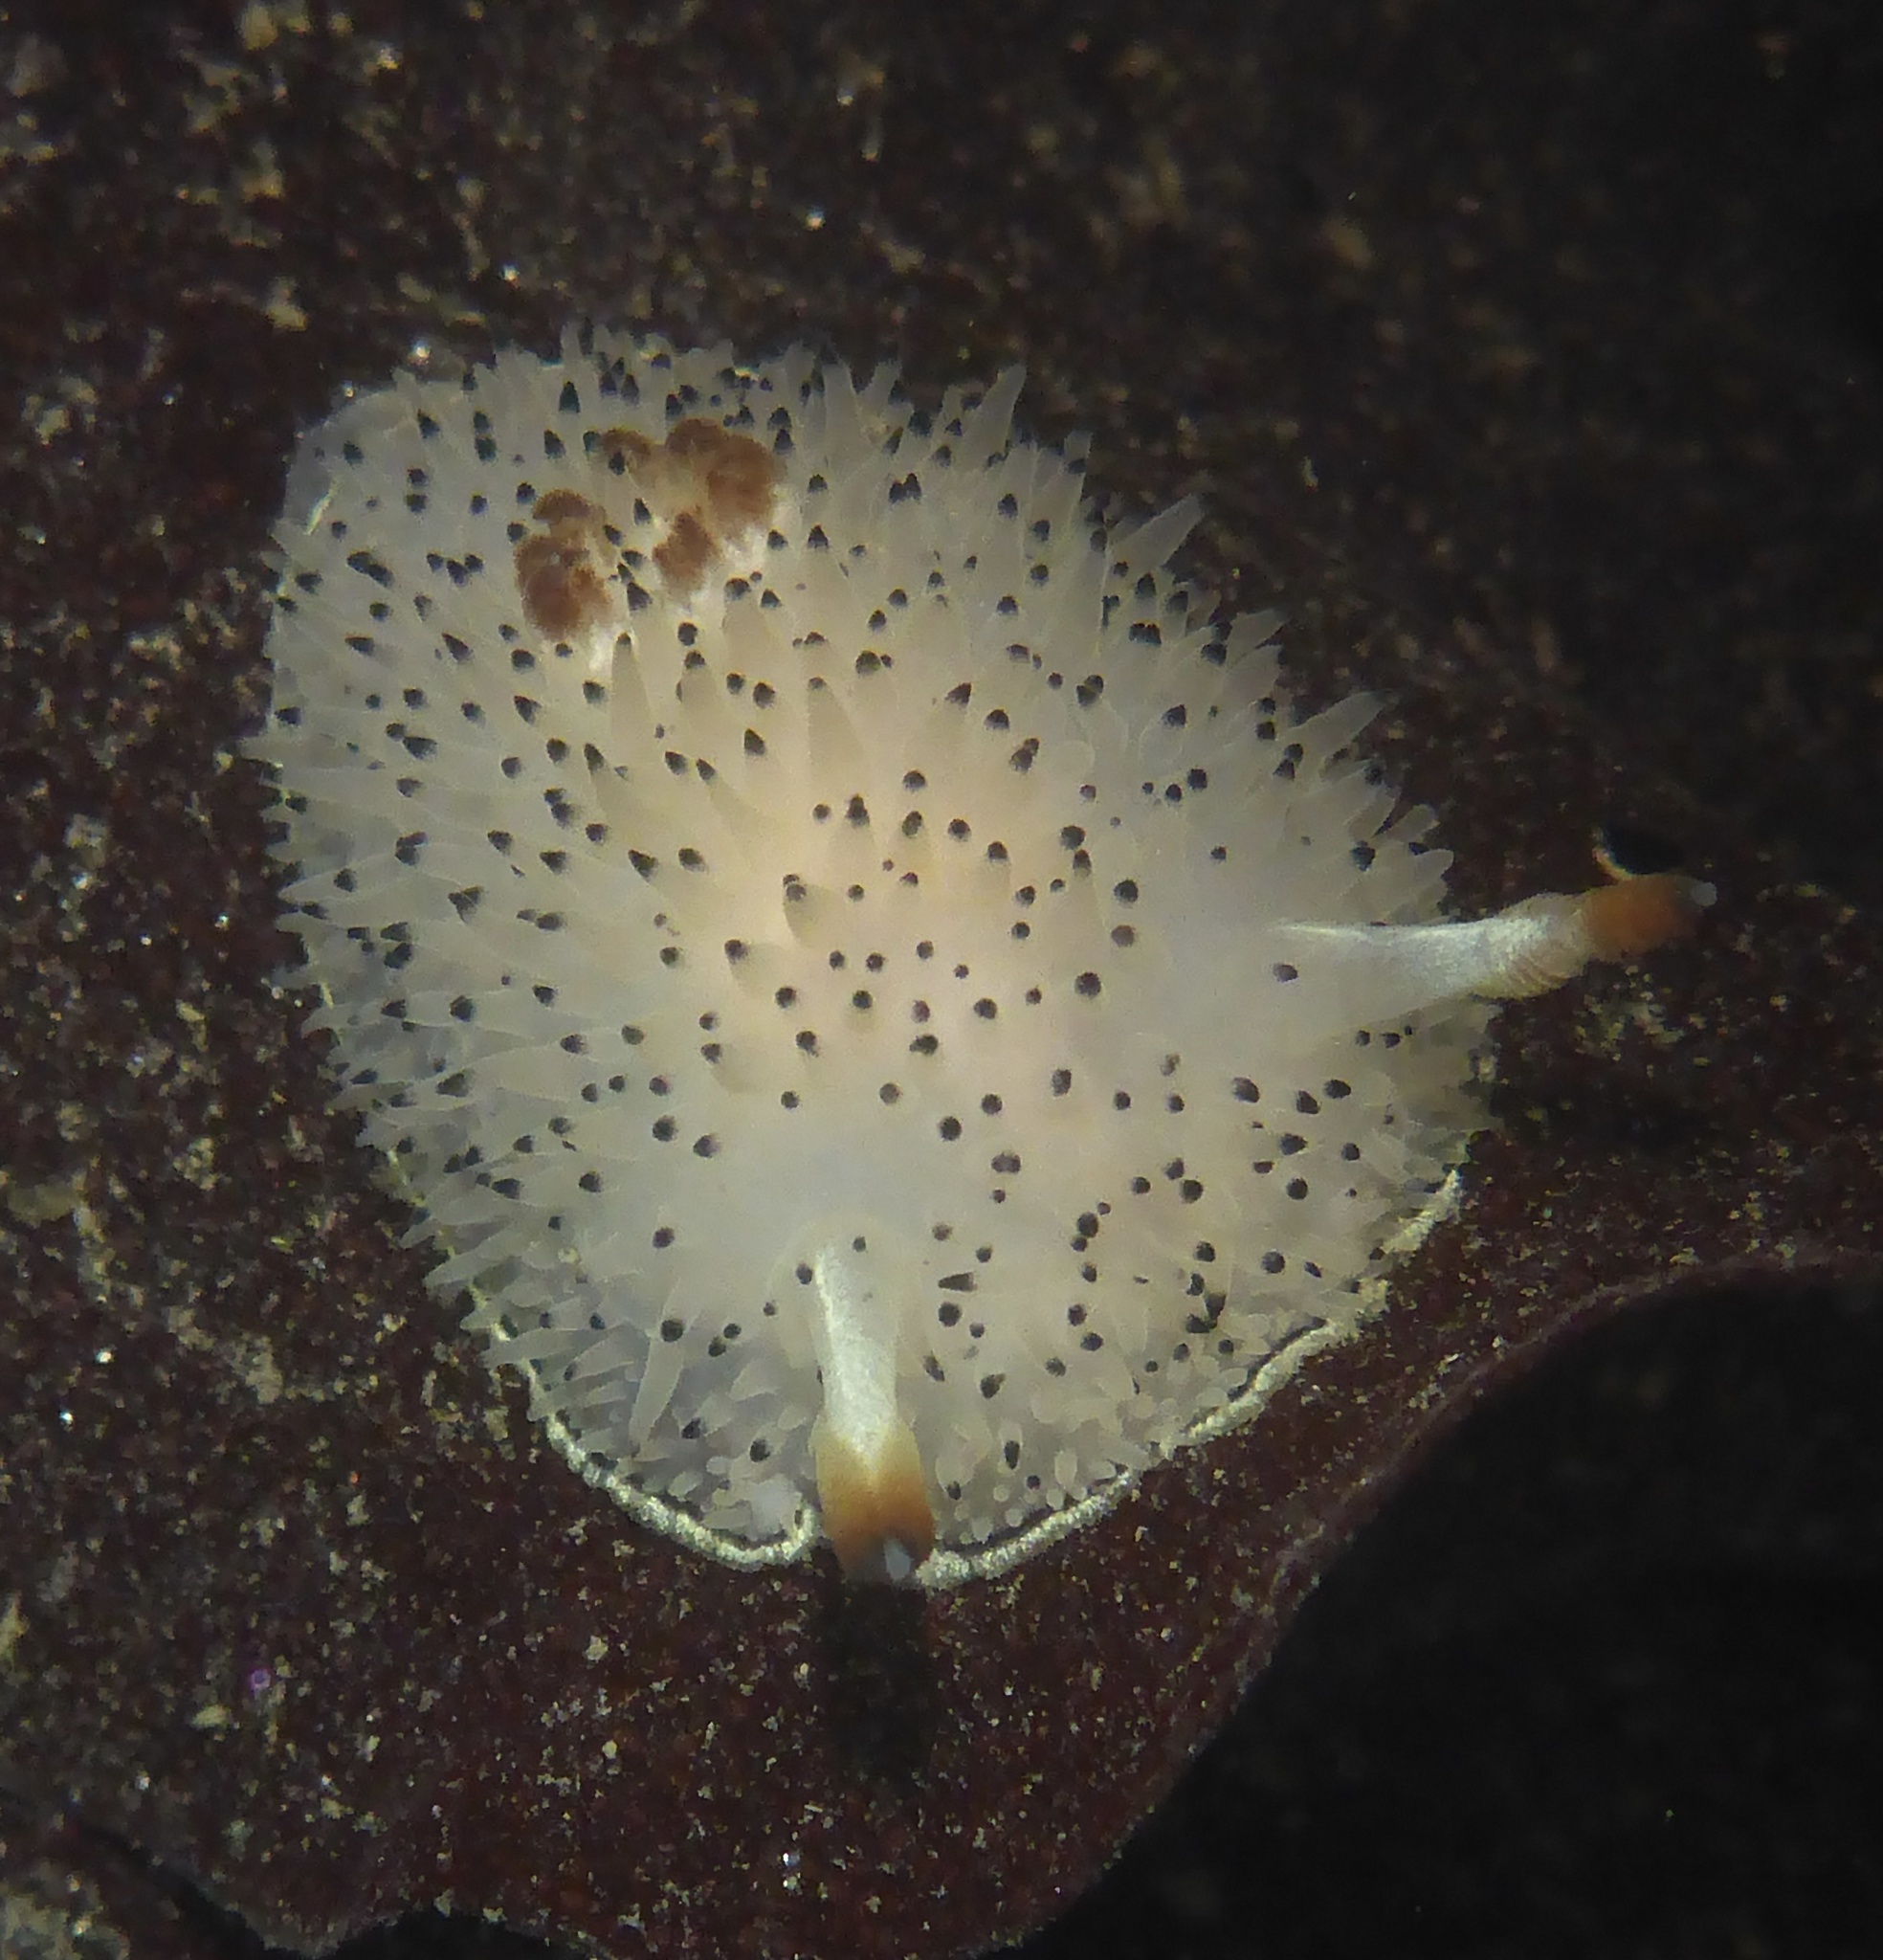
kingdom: Animalia
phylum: Mollusca
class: Gastropoda
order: Nudibranchia
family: Onchidorididae
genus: Acanthodoris
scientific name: Acanthodoris rhodoceras
